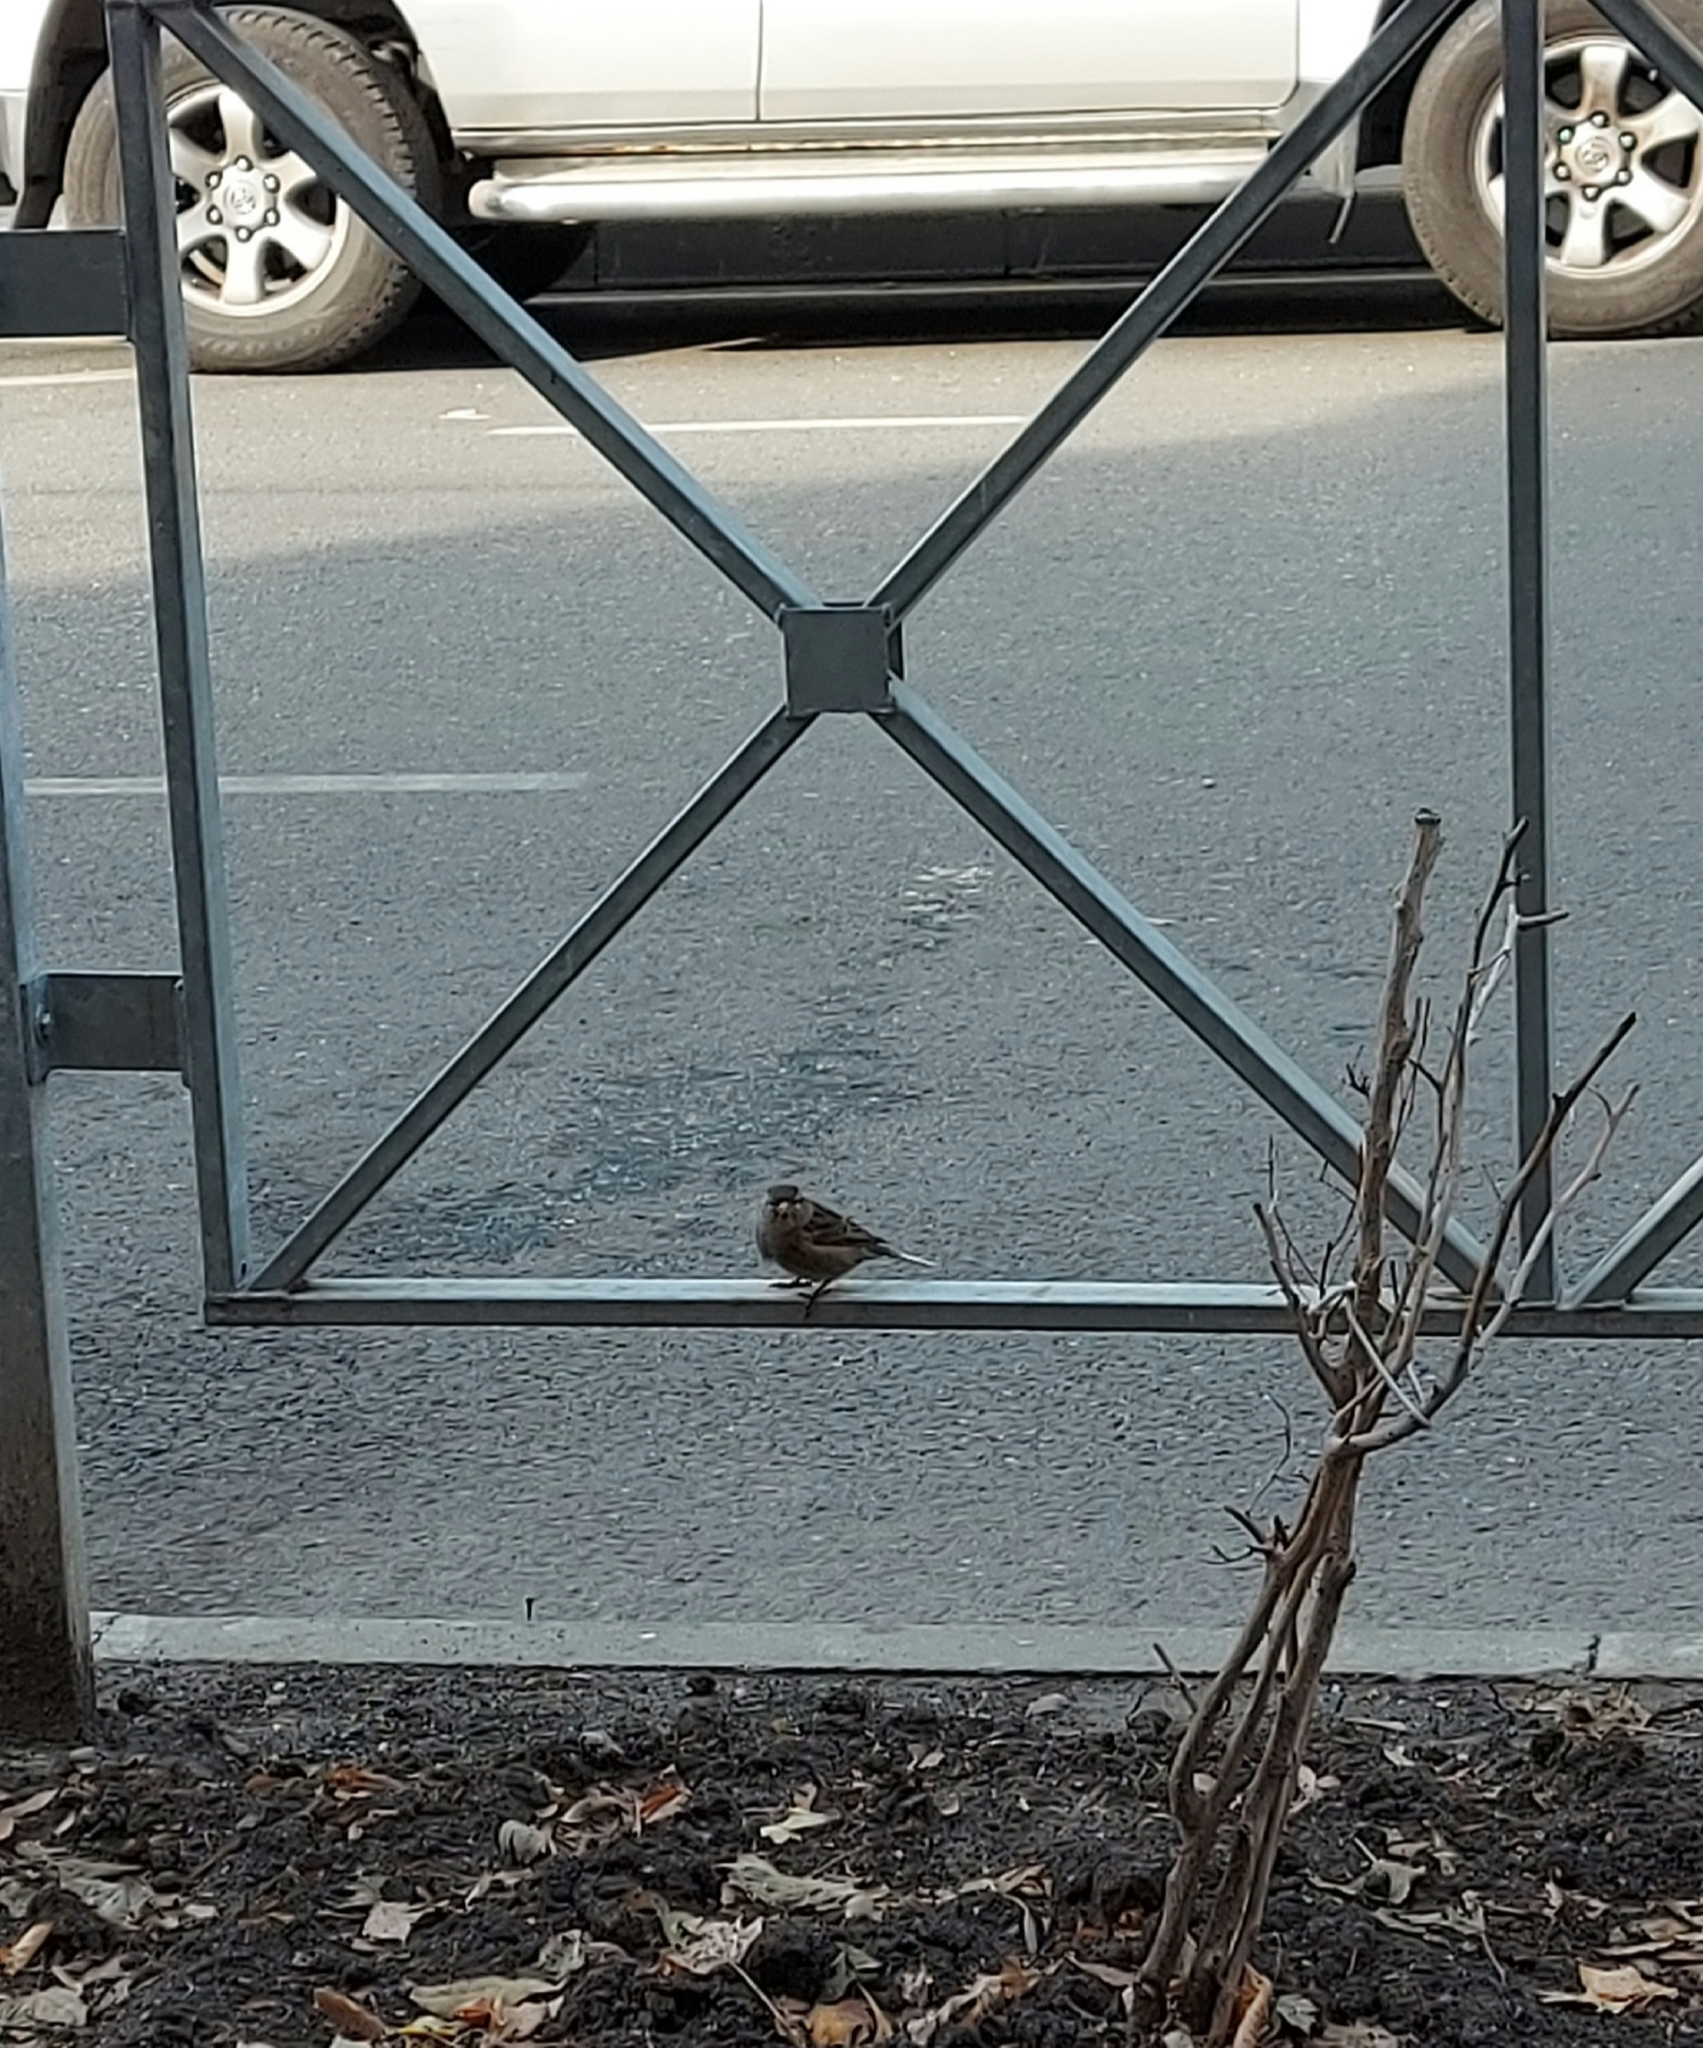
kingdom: Animalia
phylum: Chordata
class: Aves
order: Passeriformes
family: Passeridae
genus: Passer
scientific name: Passer domesticus
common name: House sparrow
